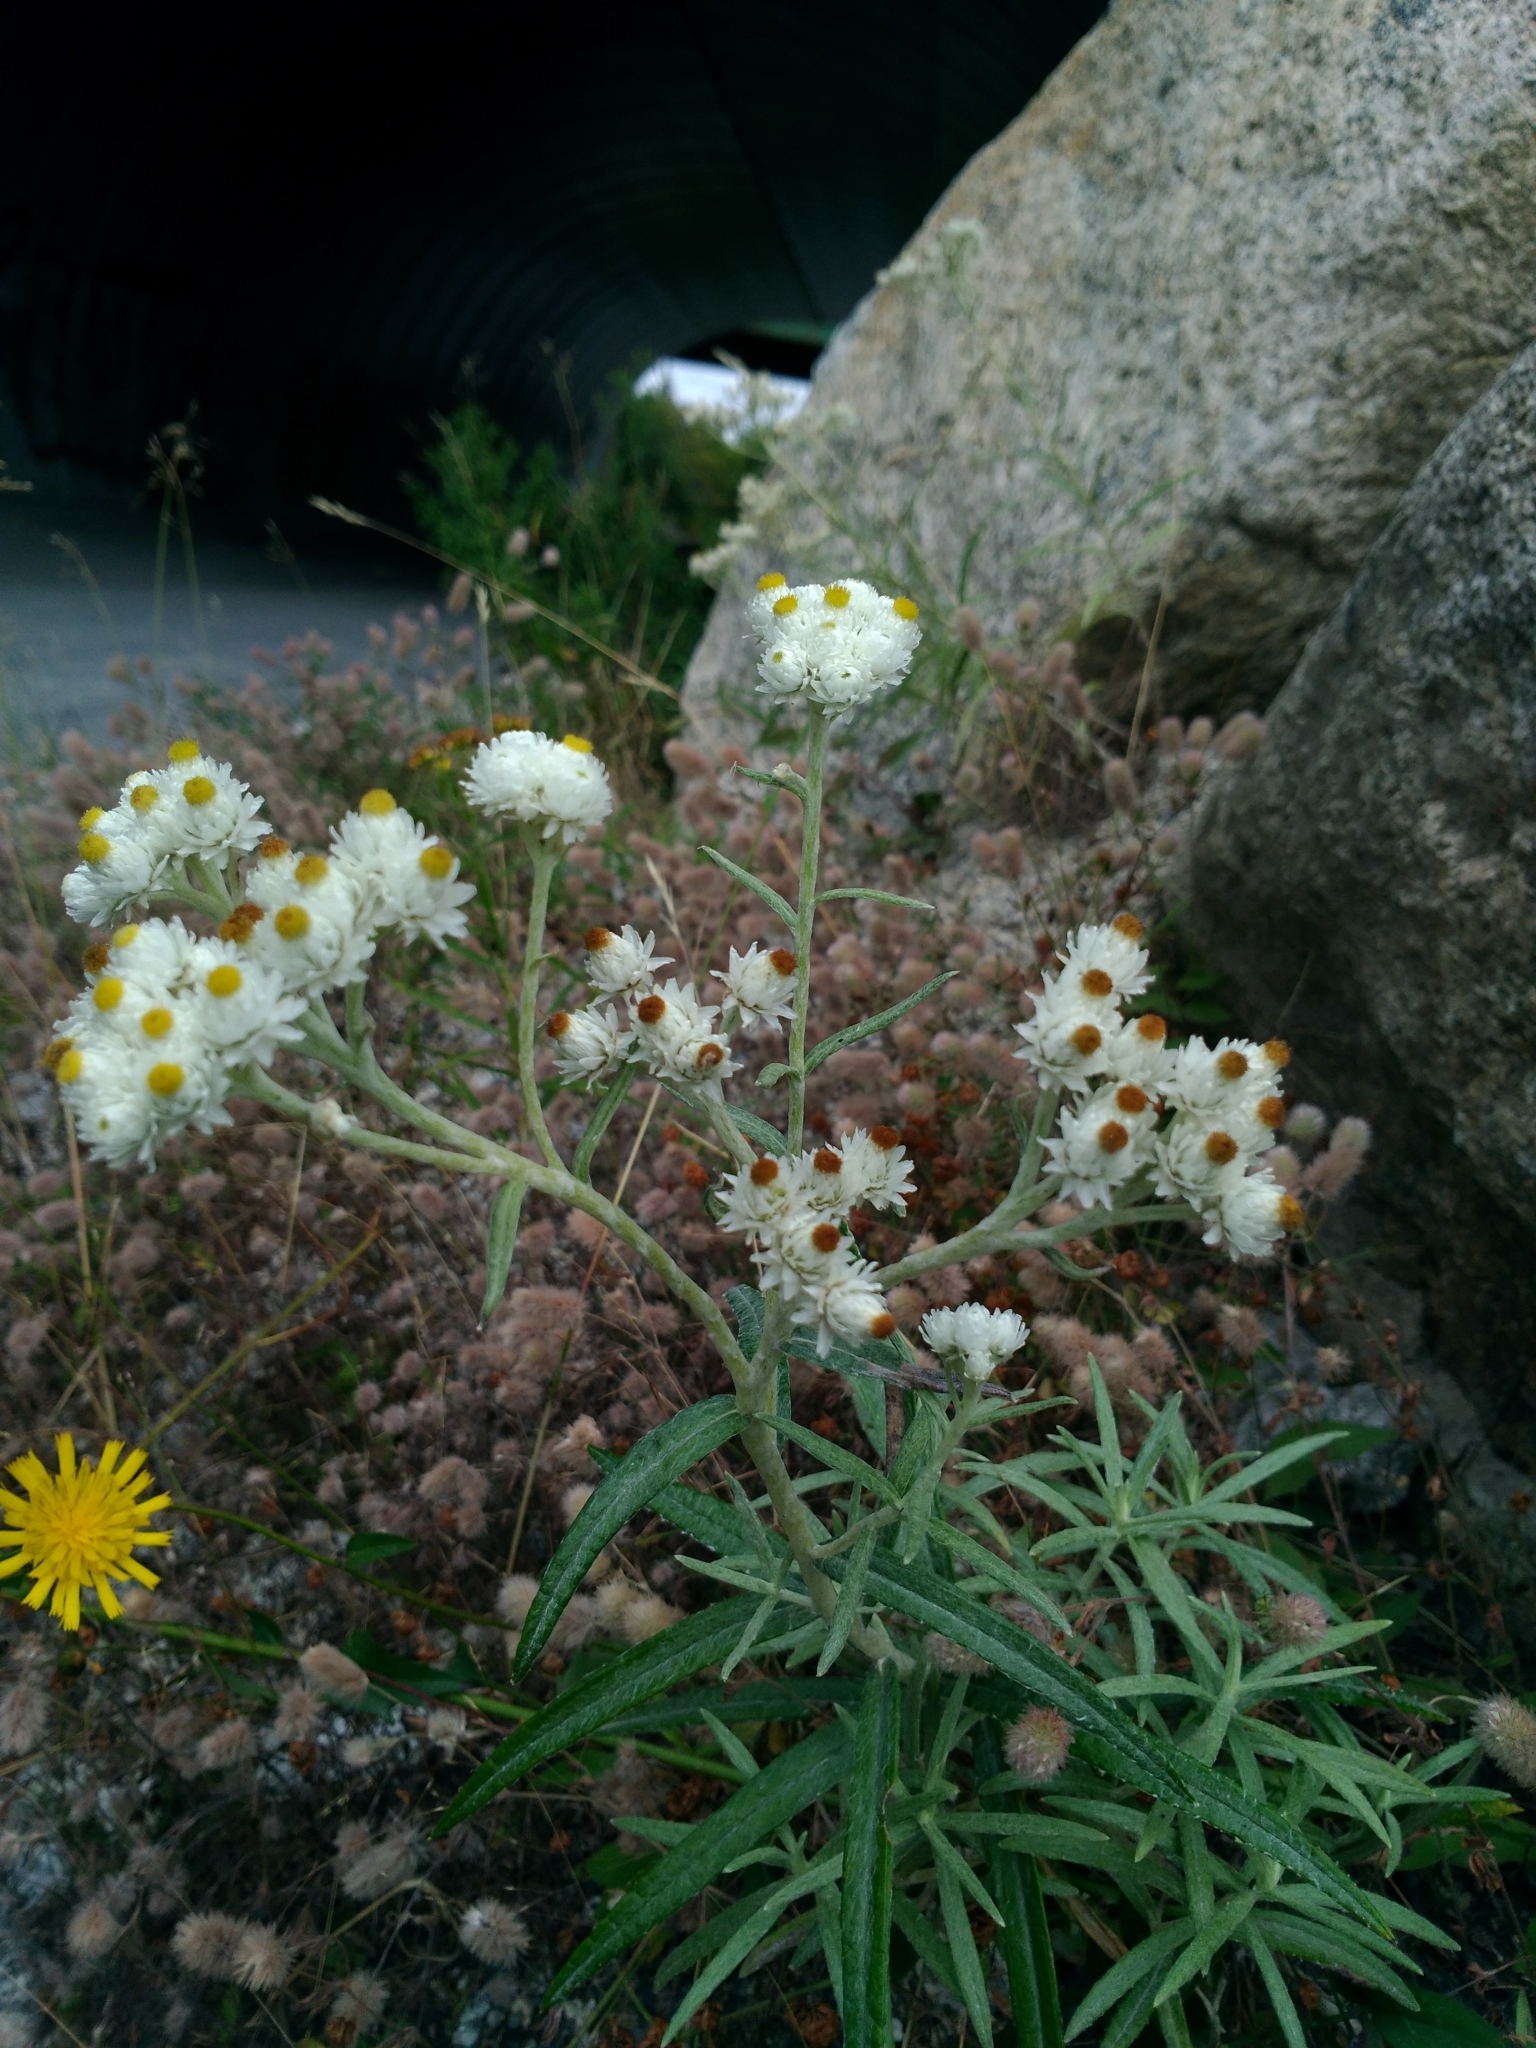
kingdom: Plantae
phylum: Tracheophyta
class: Magnoliopsida
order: Asterales
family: Asteraceae
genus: Anaphalis
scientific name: Anaphalis margaritacea
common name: Pearly everlasting
